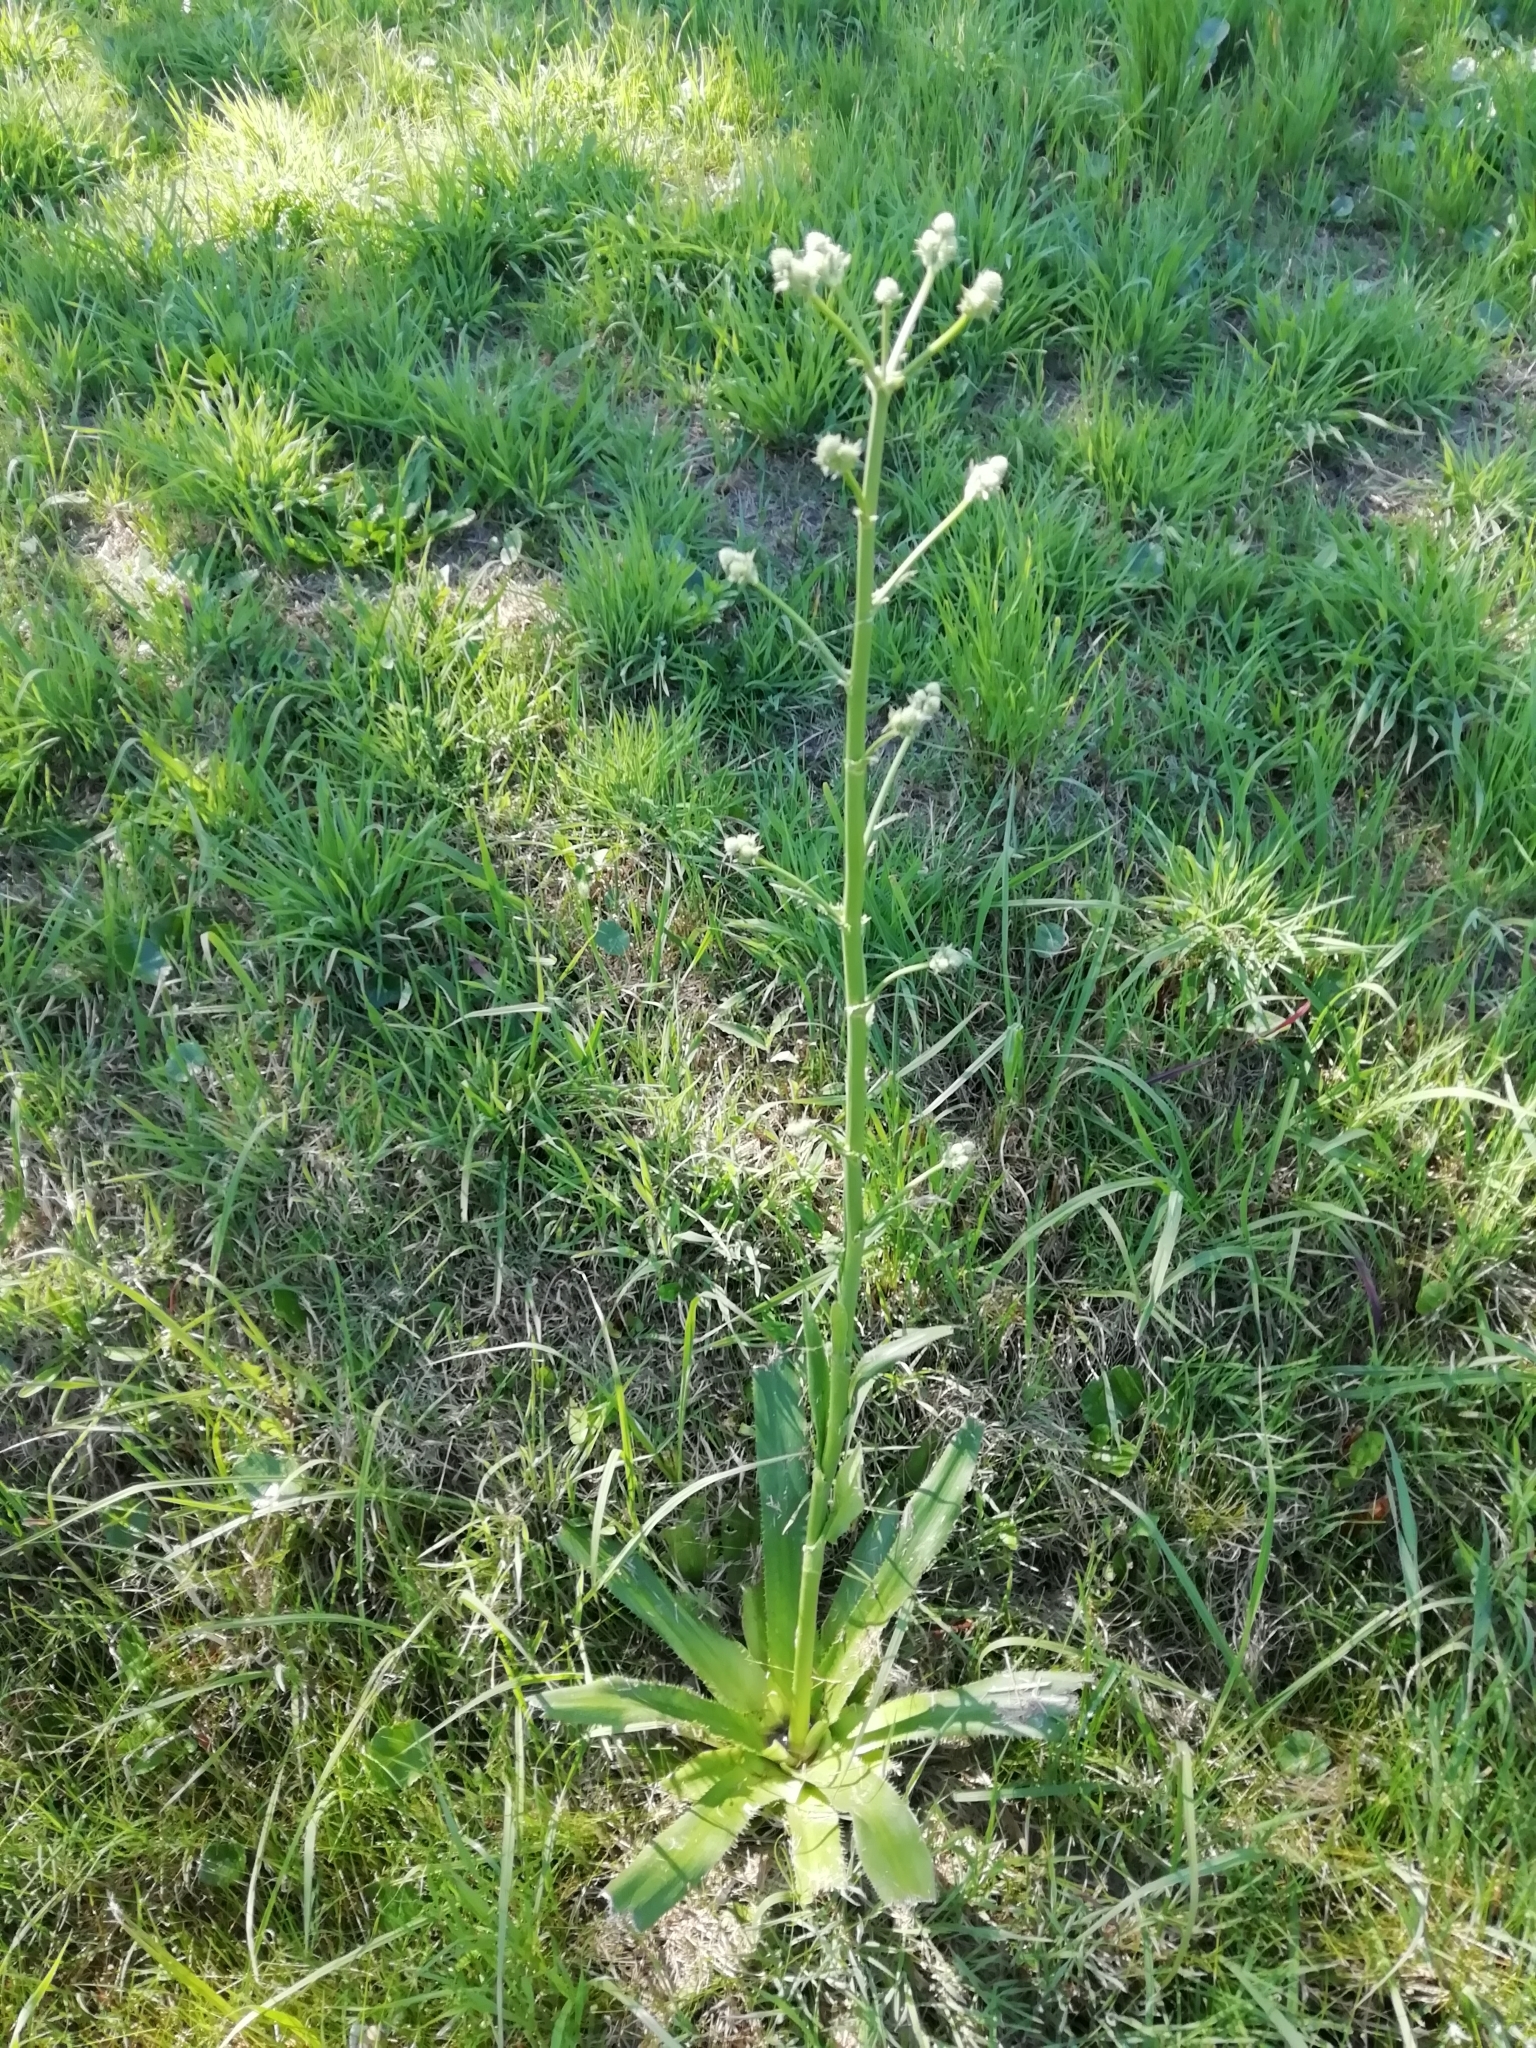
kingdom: Plantae
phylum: Tracheophyta
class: Magnoliopsida
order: Apiales
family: Apiaceae
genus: Eryngium
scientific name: Eryngium elegans
